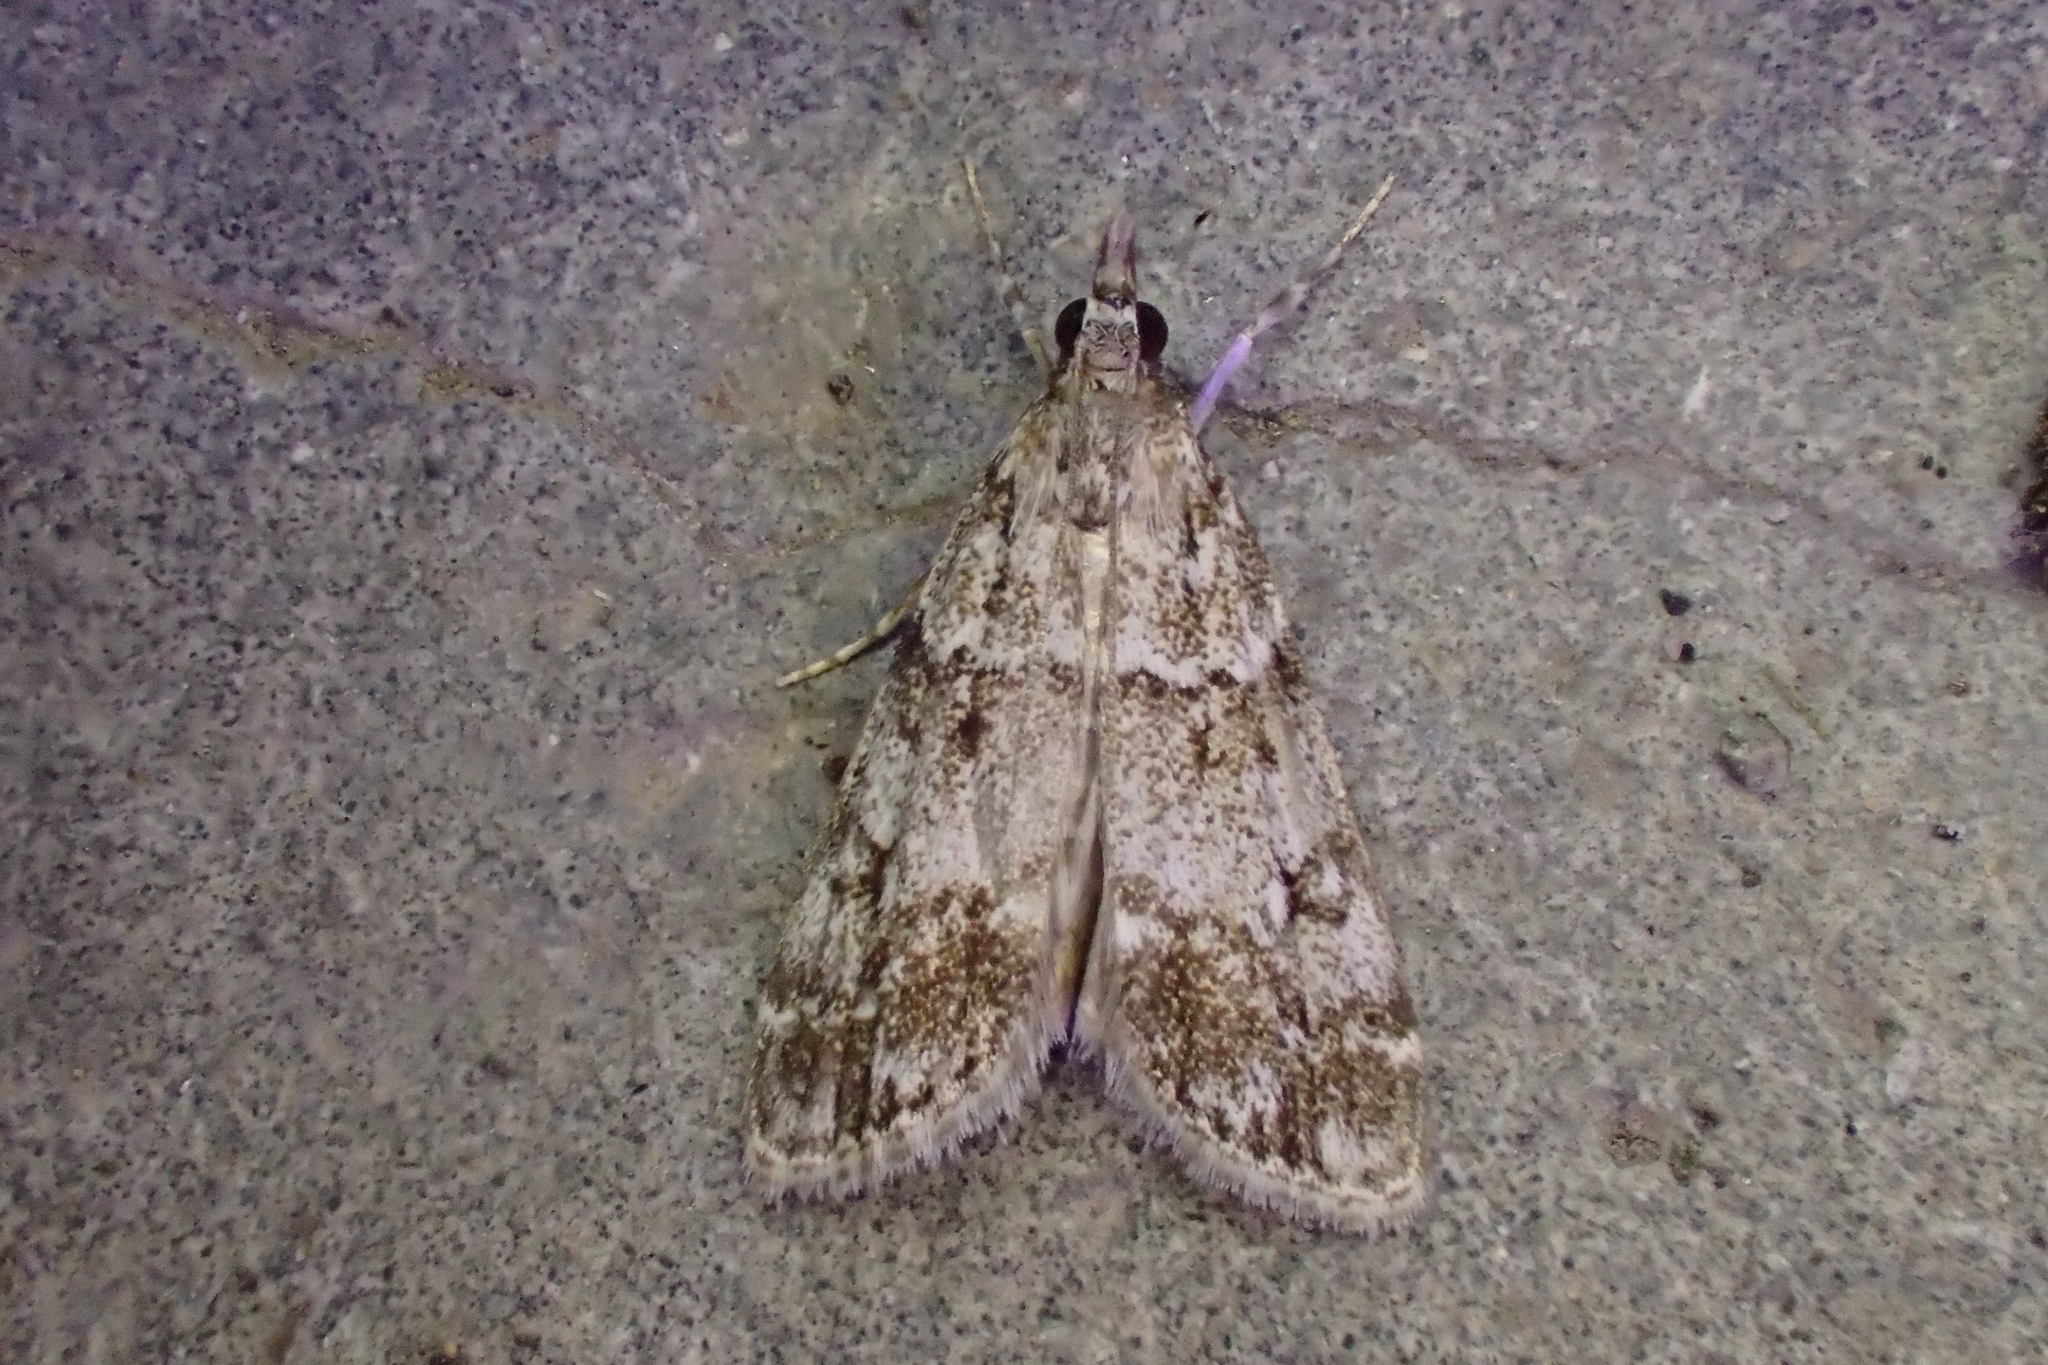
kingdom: Animalia
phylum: Arthropoda
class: Insecta
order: Lepidoptera
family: Crambidae
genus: Eudonia
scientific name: Eudonia lacustrata
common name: Little grey
